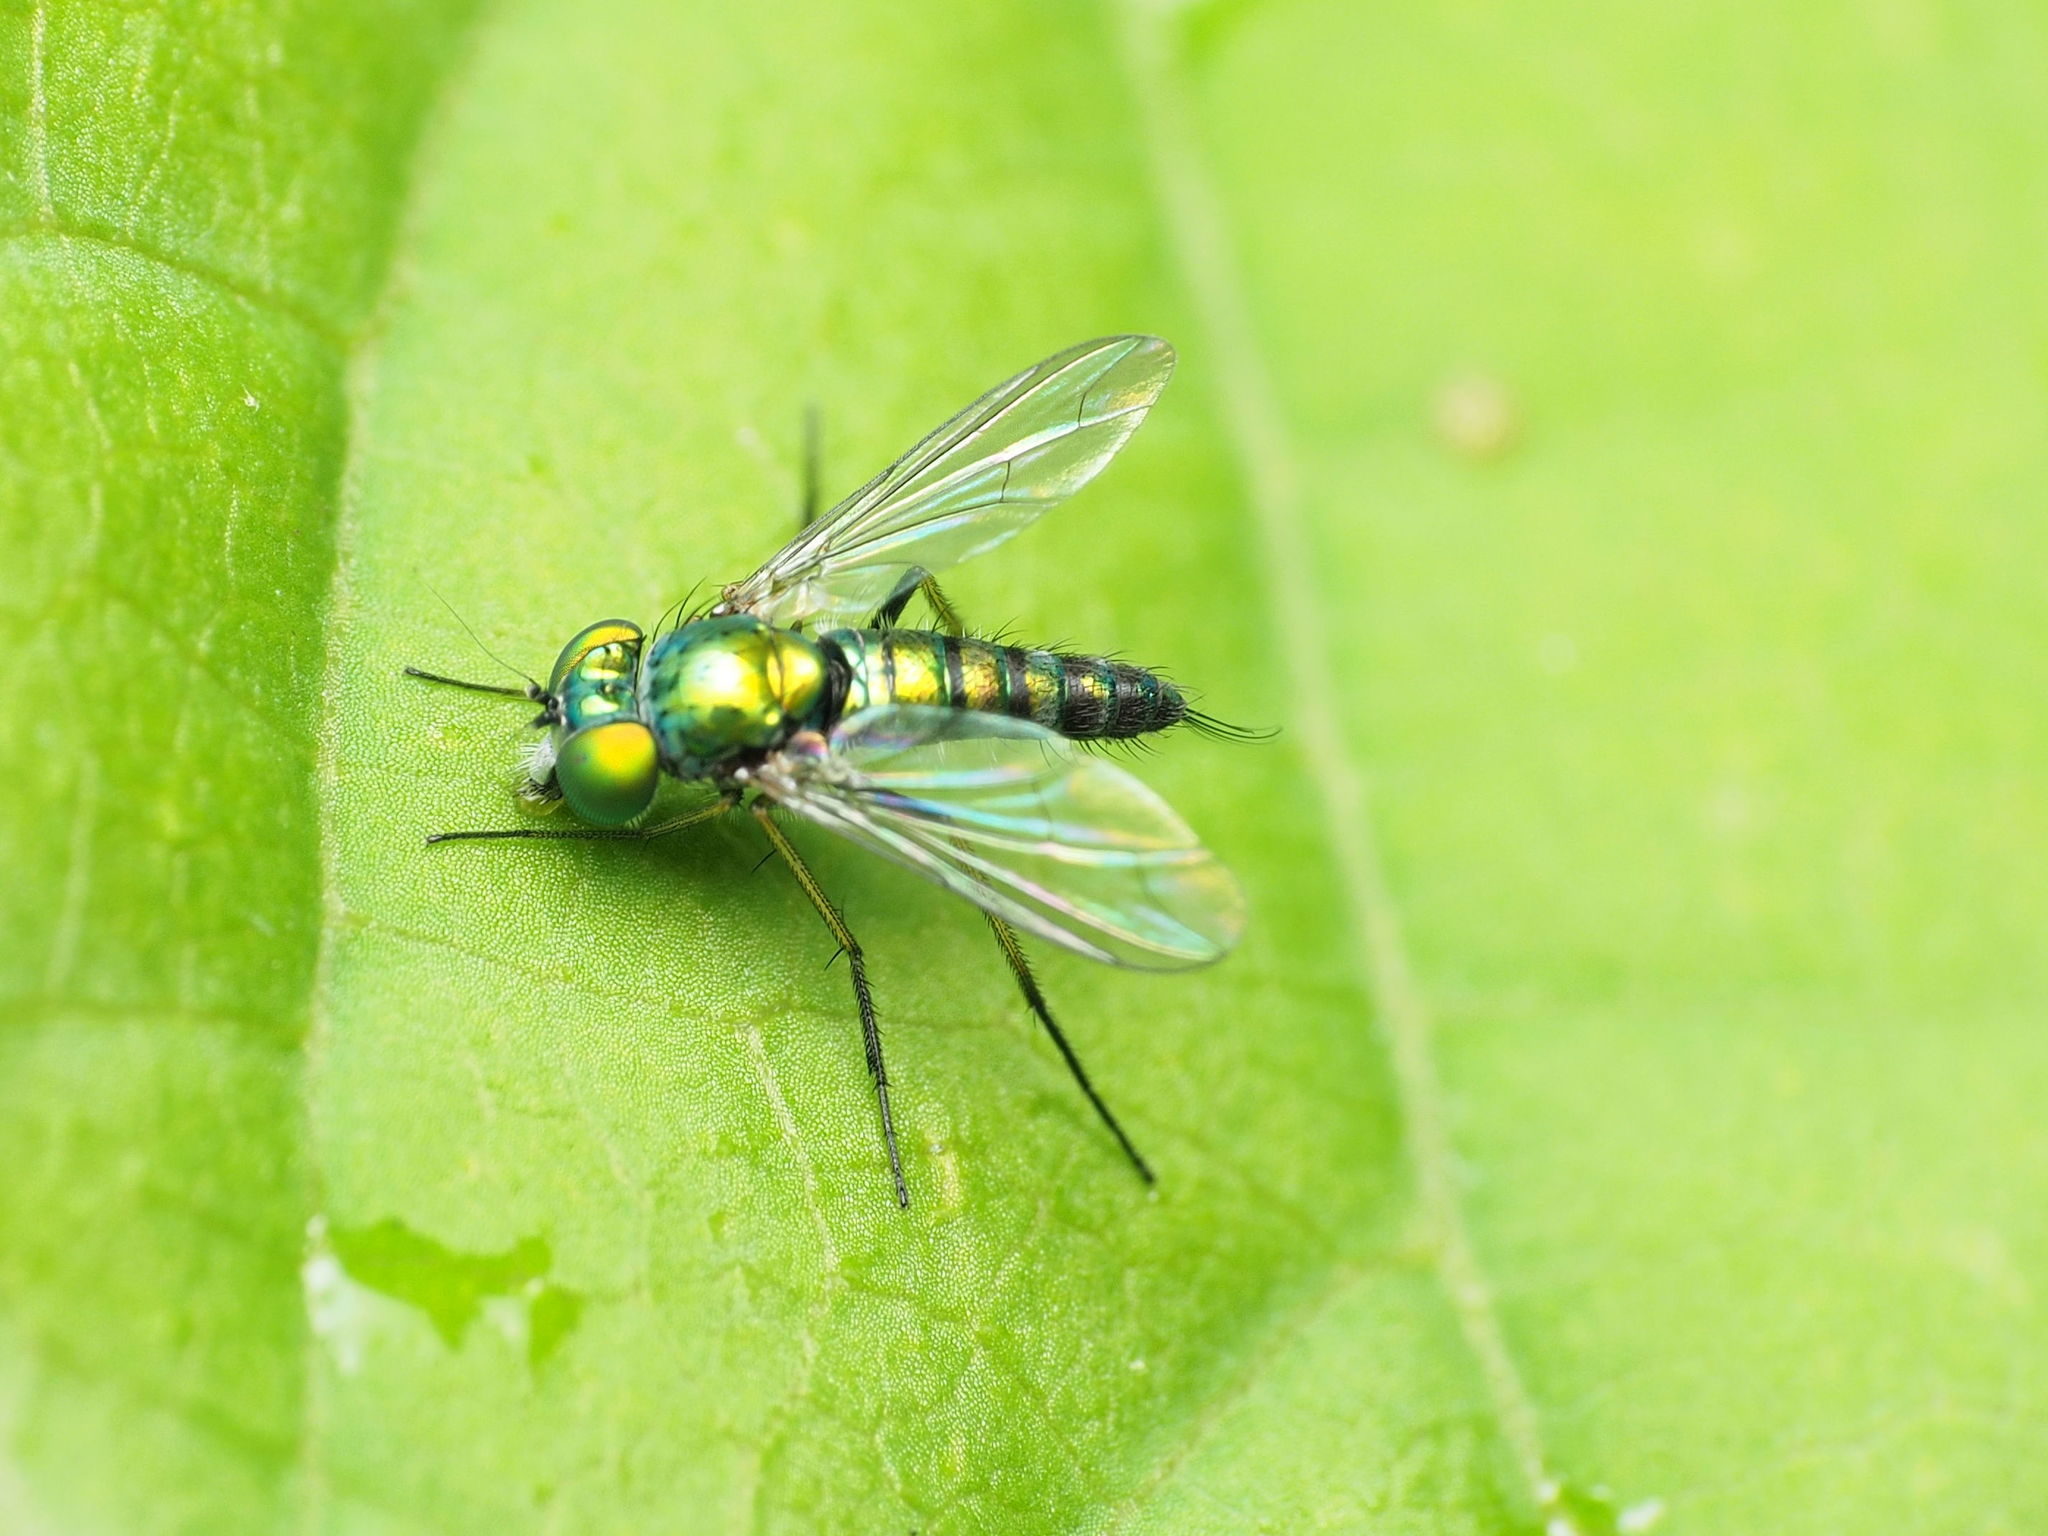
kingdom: Animalia
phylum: Arthropoda
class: Insecta
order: Diptera
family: Dolichopodidae
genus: Condylostylus
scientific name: Condylostylus caudatus
